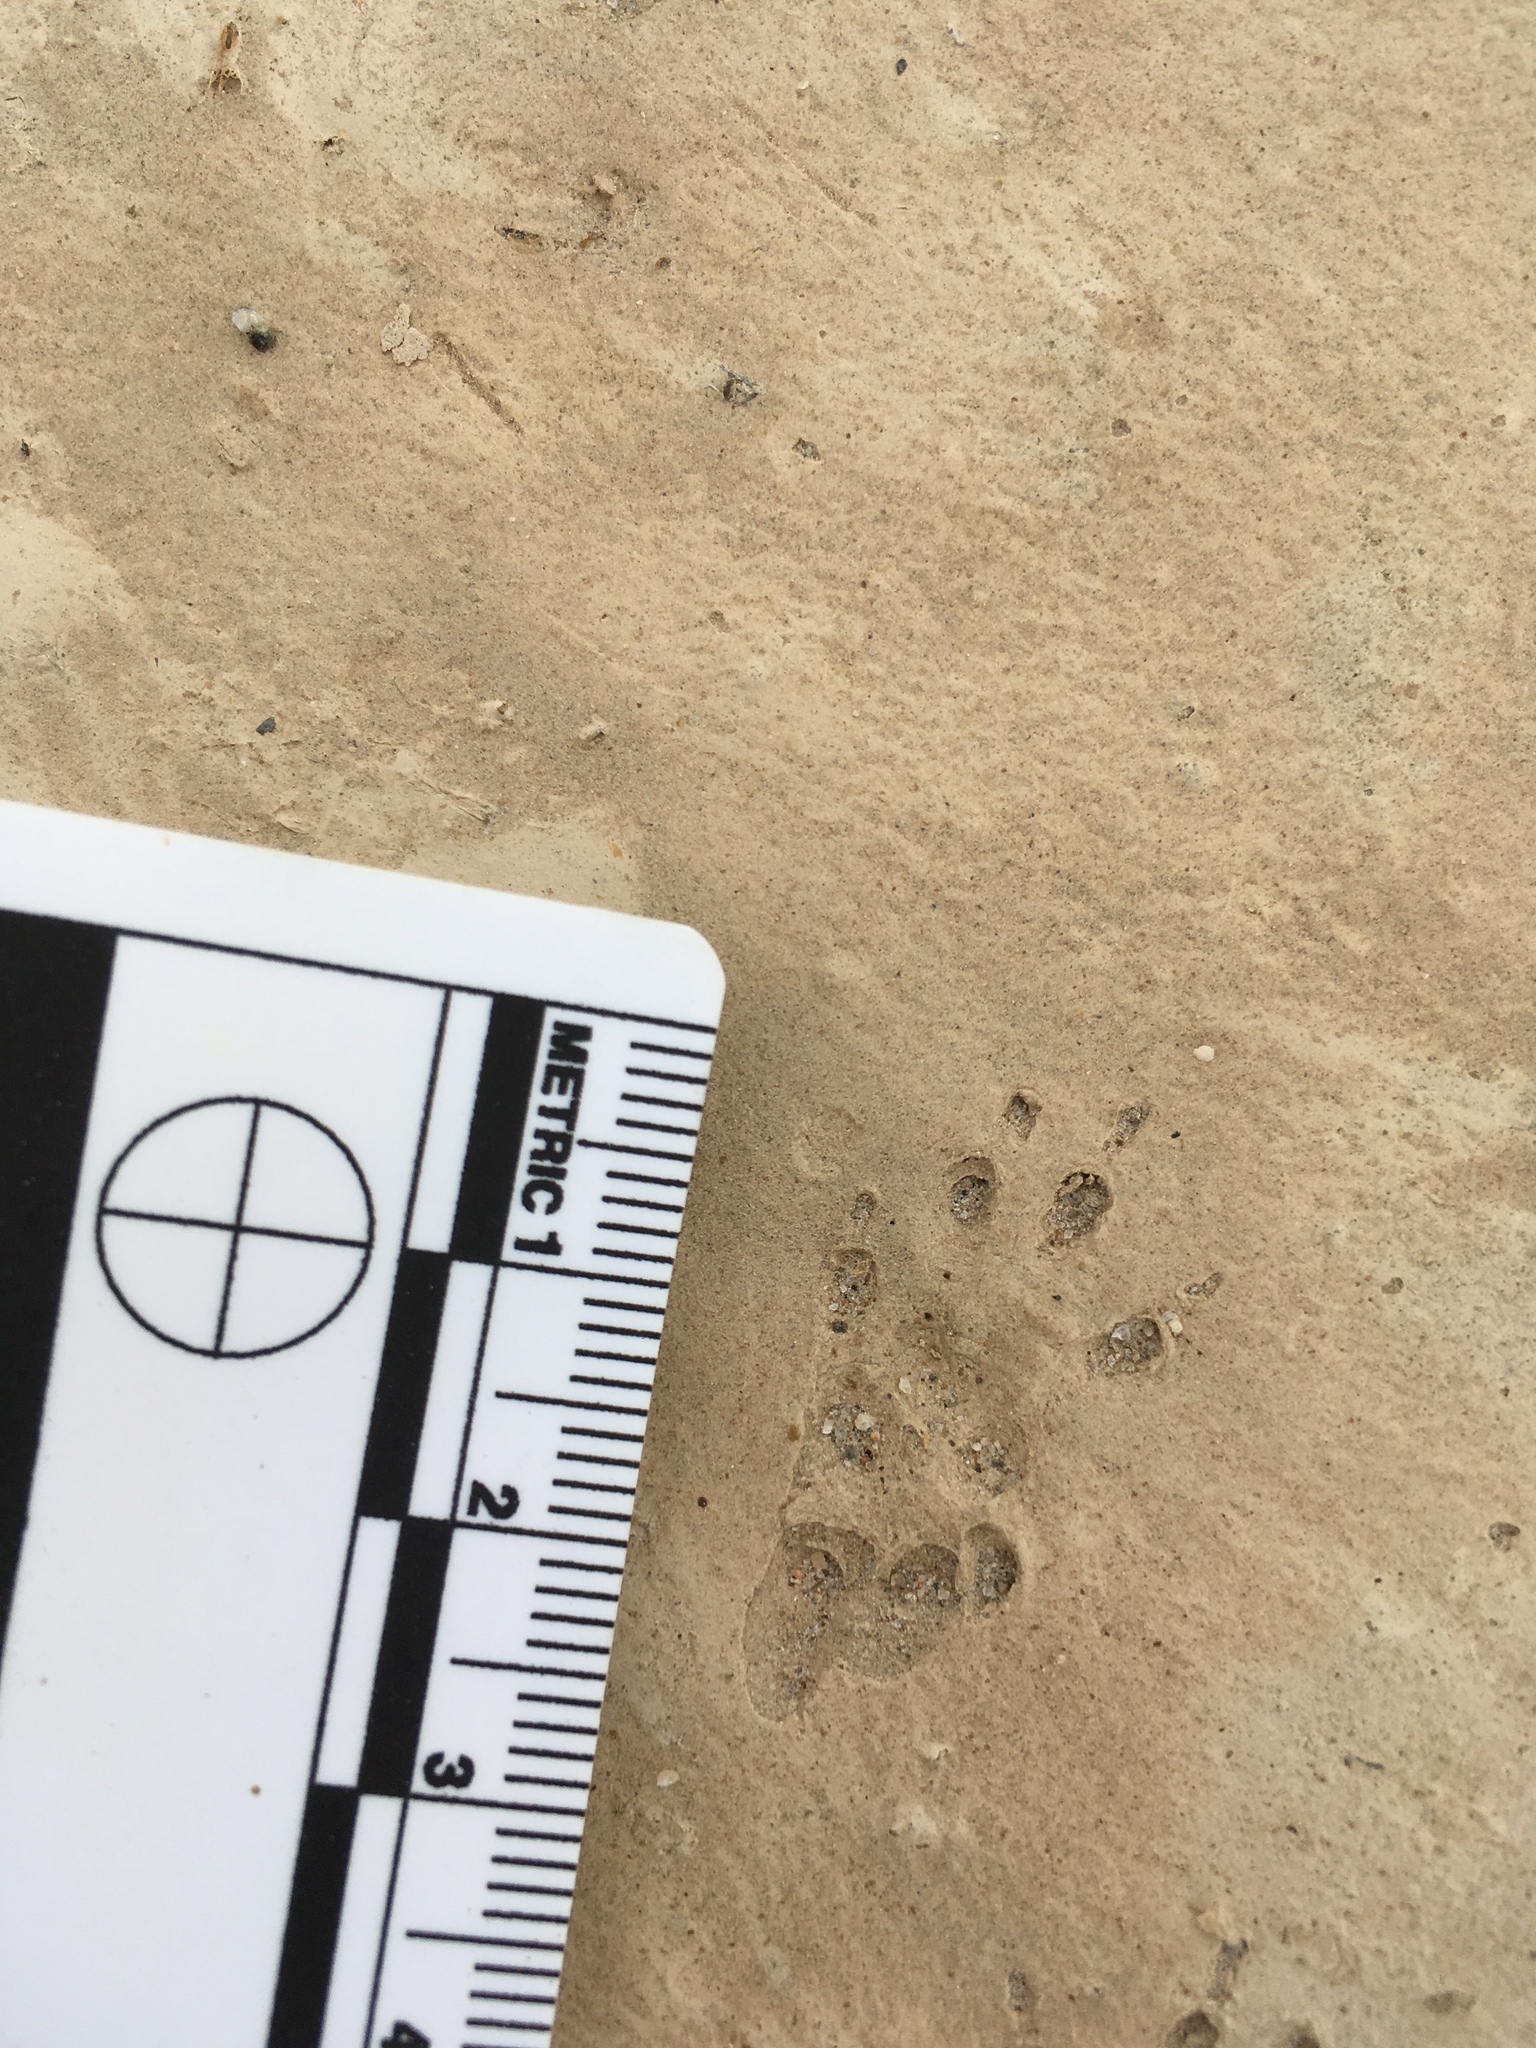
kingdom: Animalia
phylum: Chordata
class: Mammalia
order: Rodentia
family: Sciuridae
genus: Ammospermophilus
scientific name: Ammospermophilus leucurus
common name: White-tailed antelope squirrel
